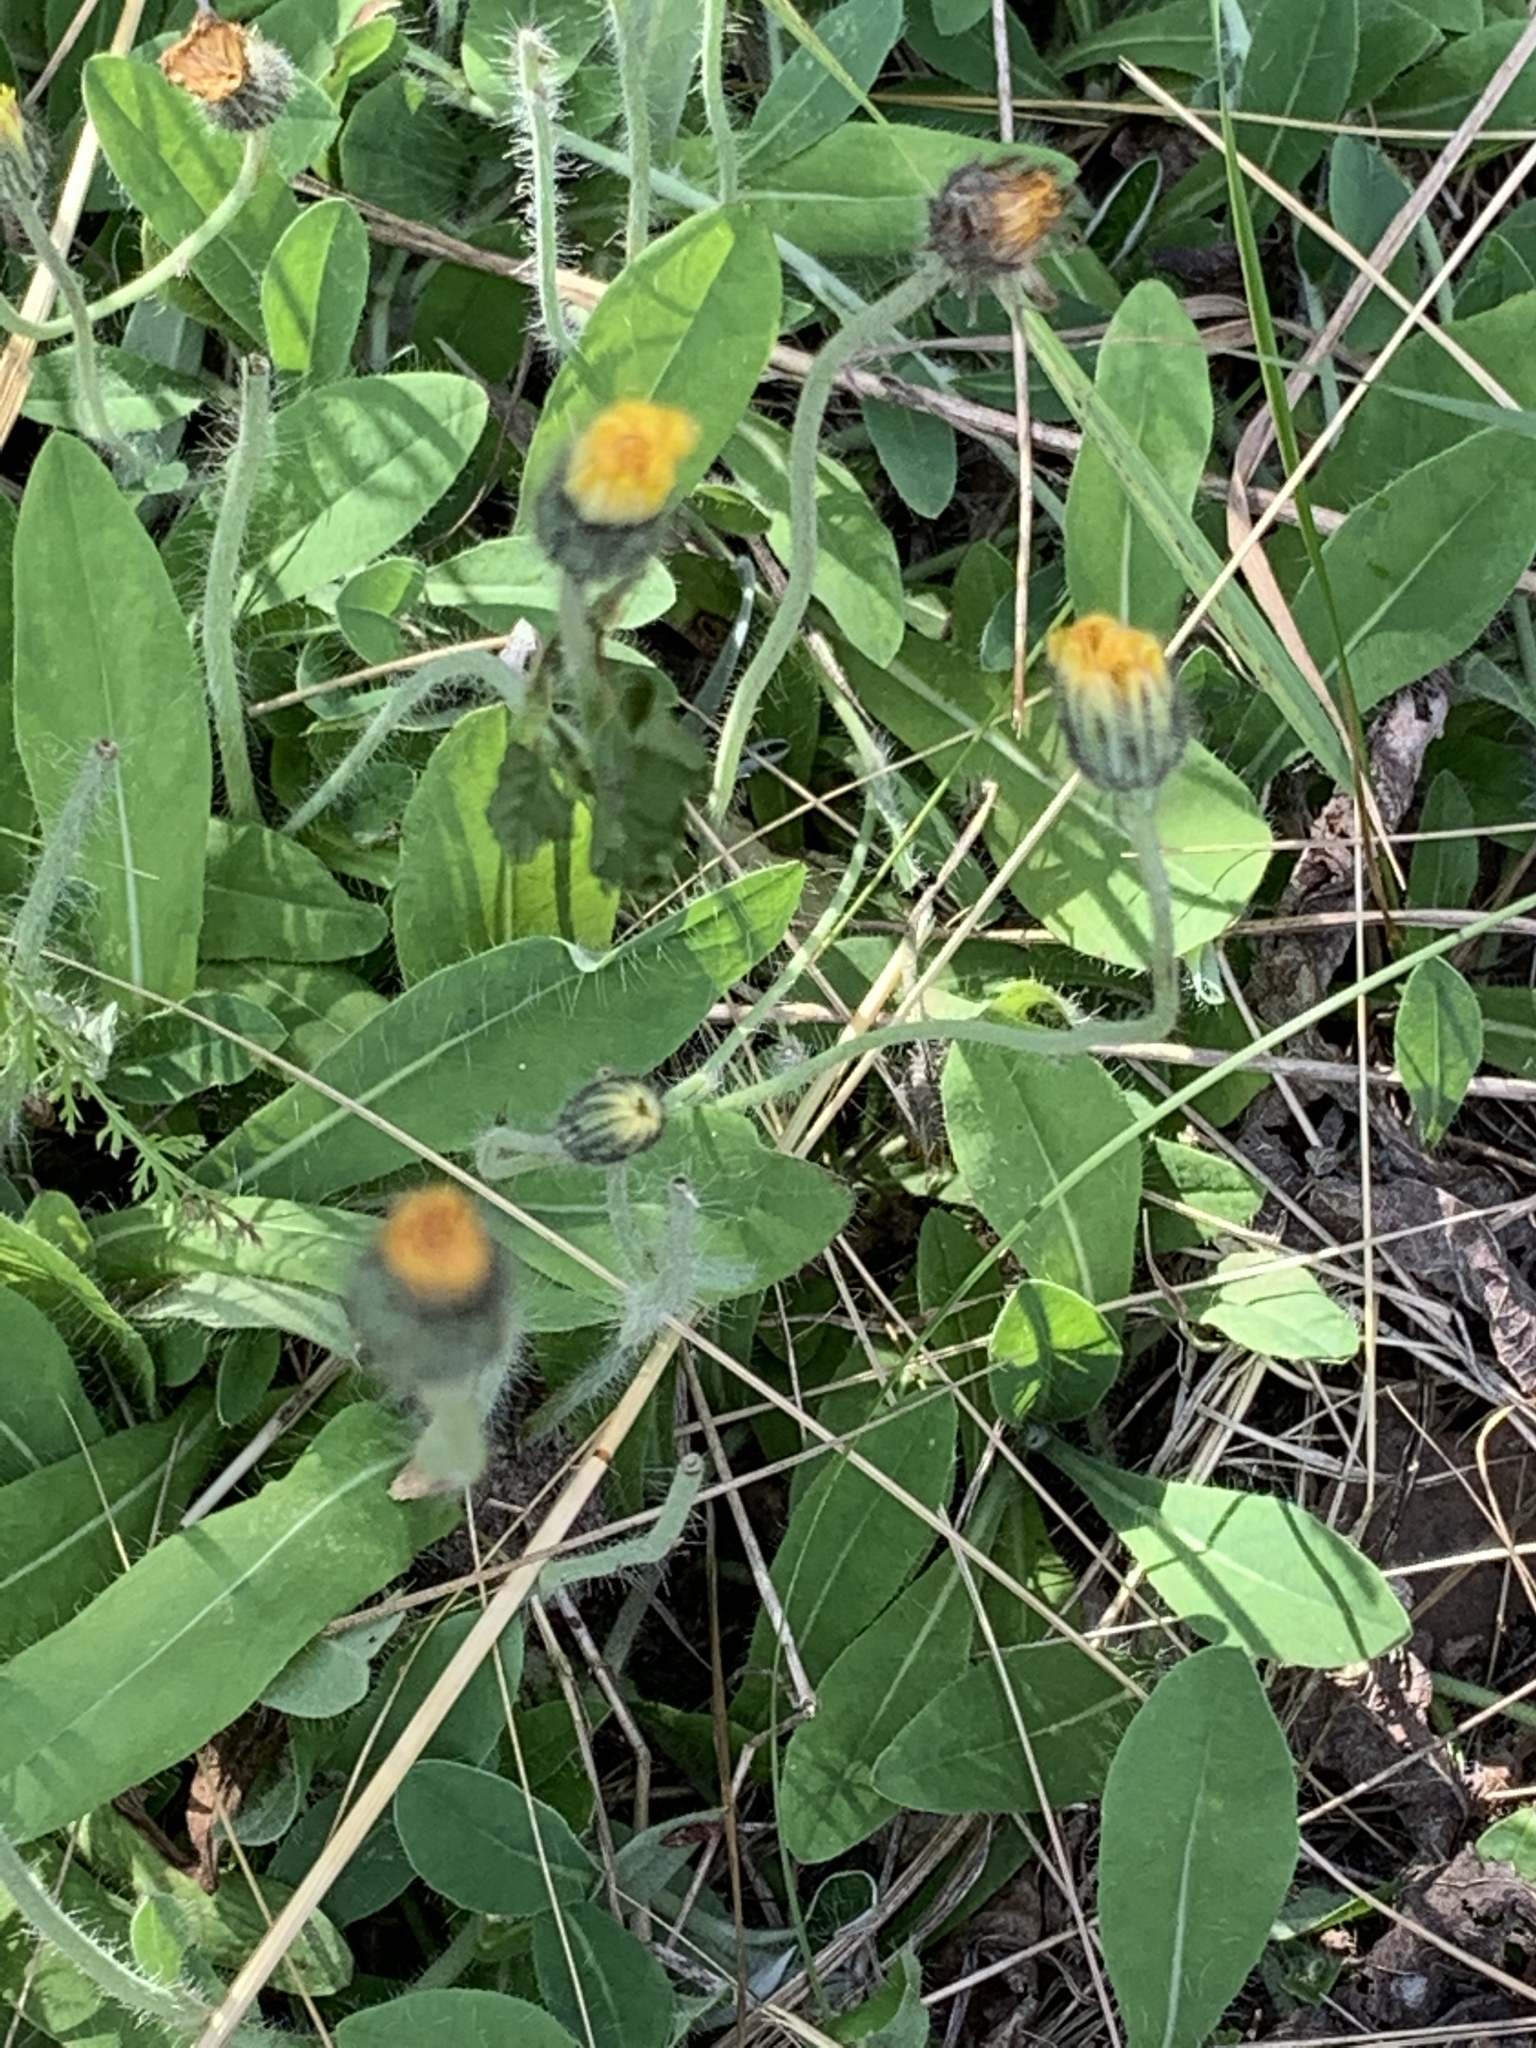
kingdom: Plantae
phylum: Tracheophyta
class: Magnoliopsida
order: Asterales
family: Asteraceae
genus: Pilosella
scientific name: Pilosella officinarum
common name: Mouse-ear hawkweed
